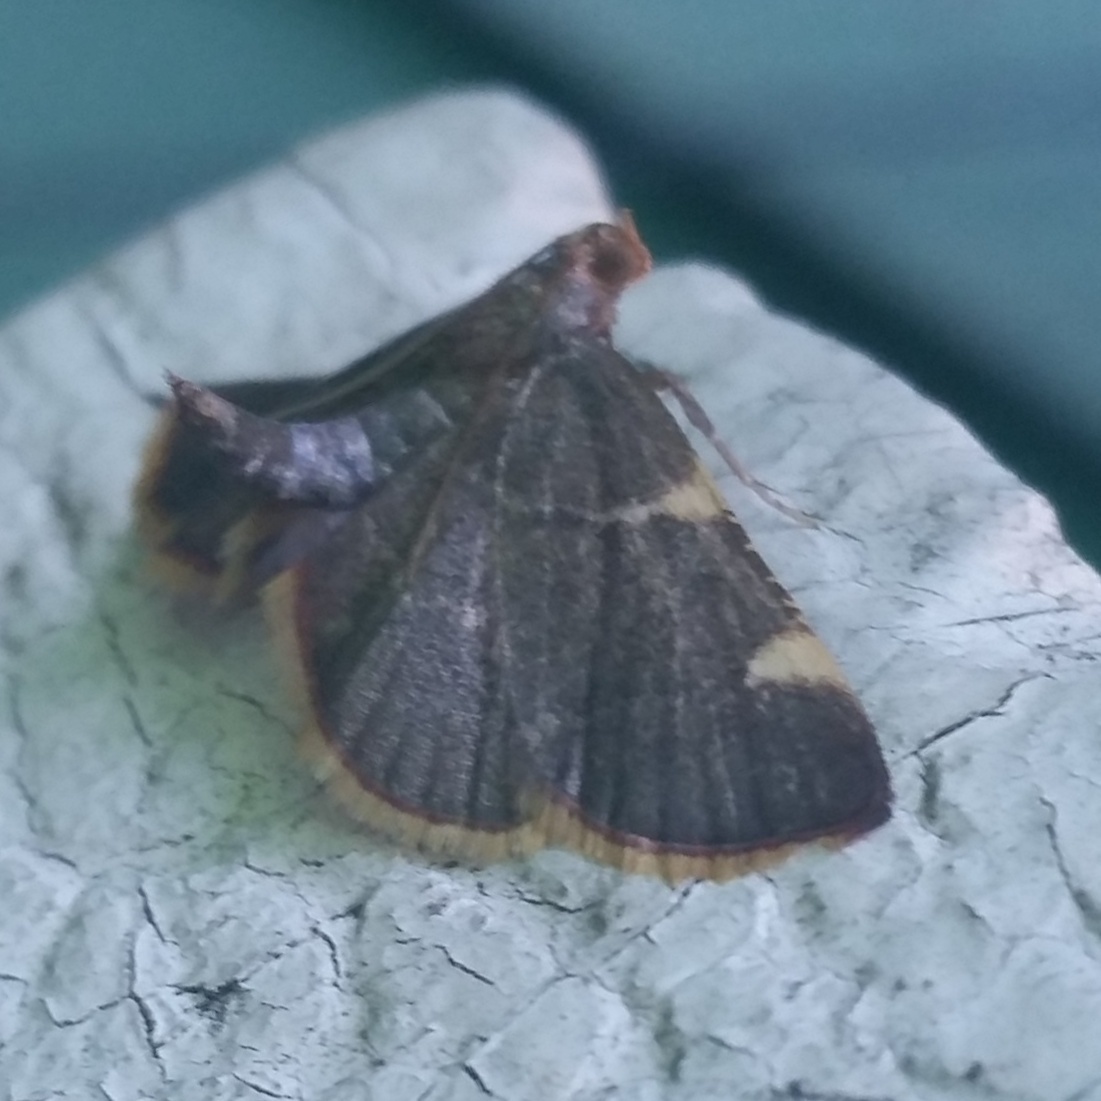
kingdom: Animalia
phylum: Arthropoda
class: Insecta
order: Lepidoptera
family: Pyralidae
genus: Hypsopygia
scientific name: Hypsopygia olinalis
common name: Yellow-fringed dolichomia moth
